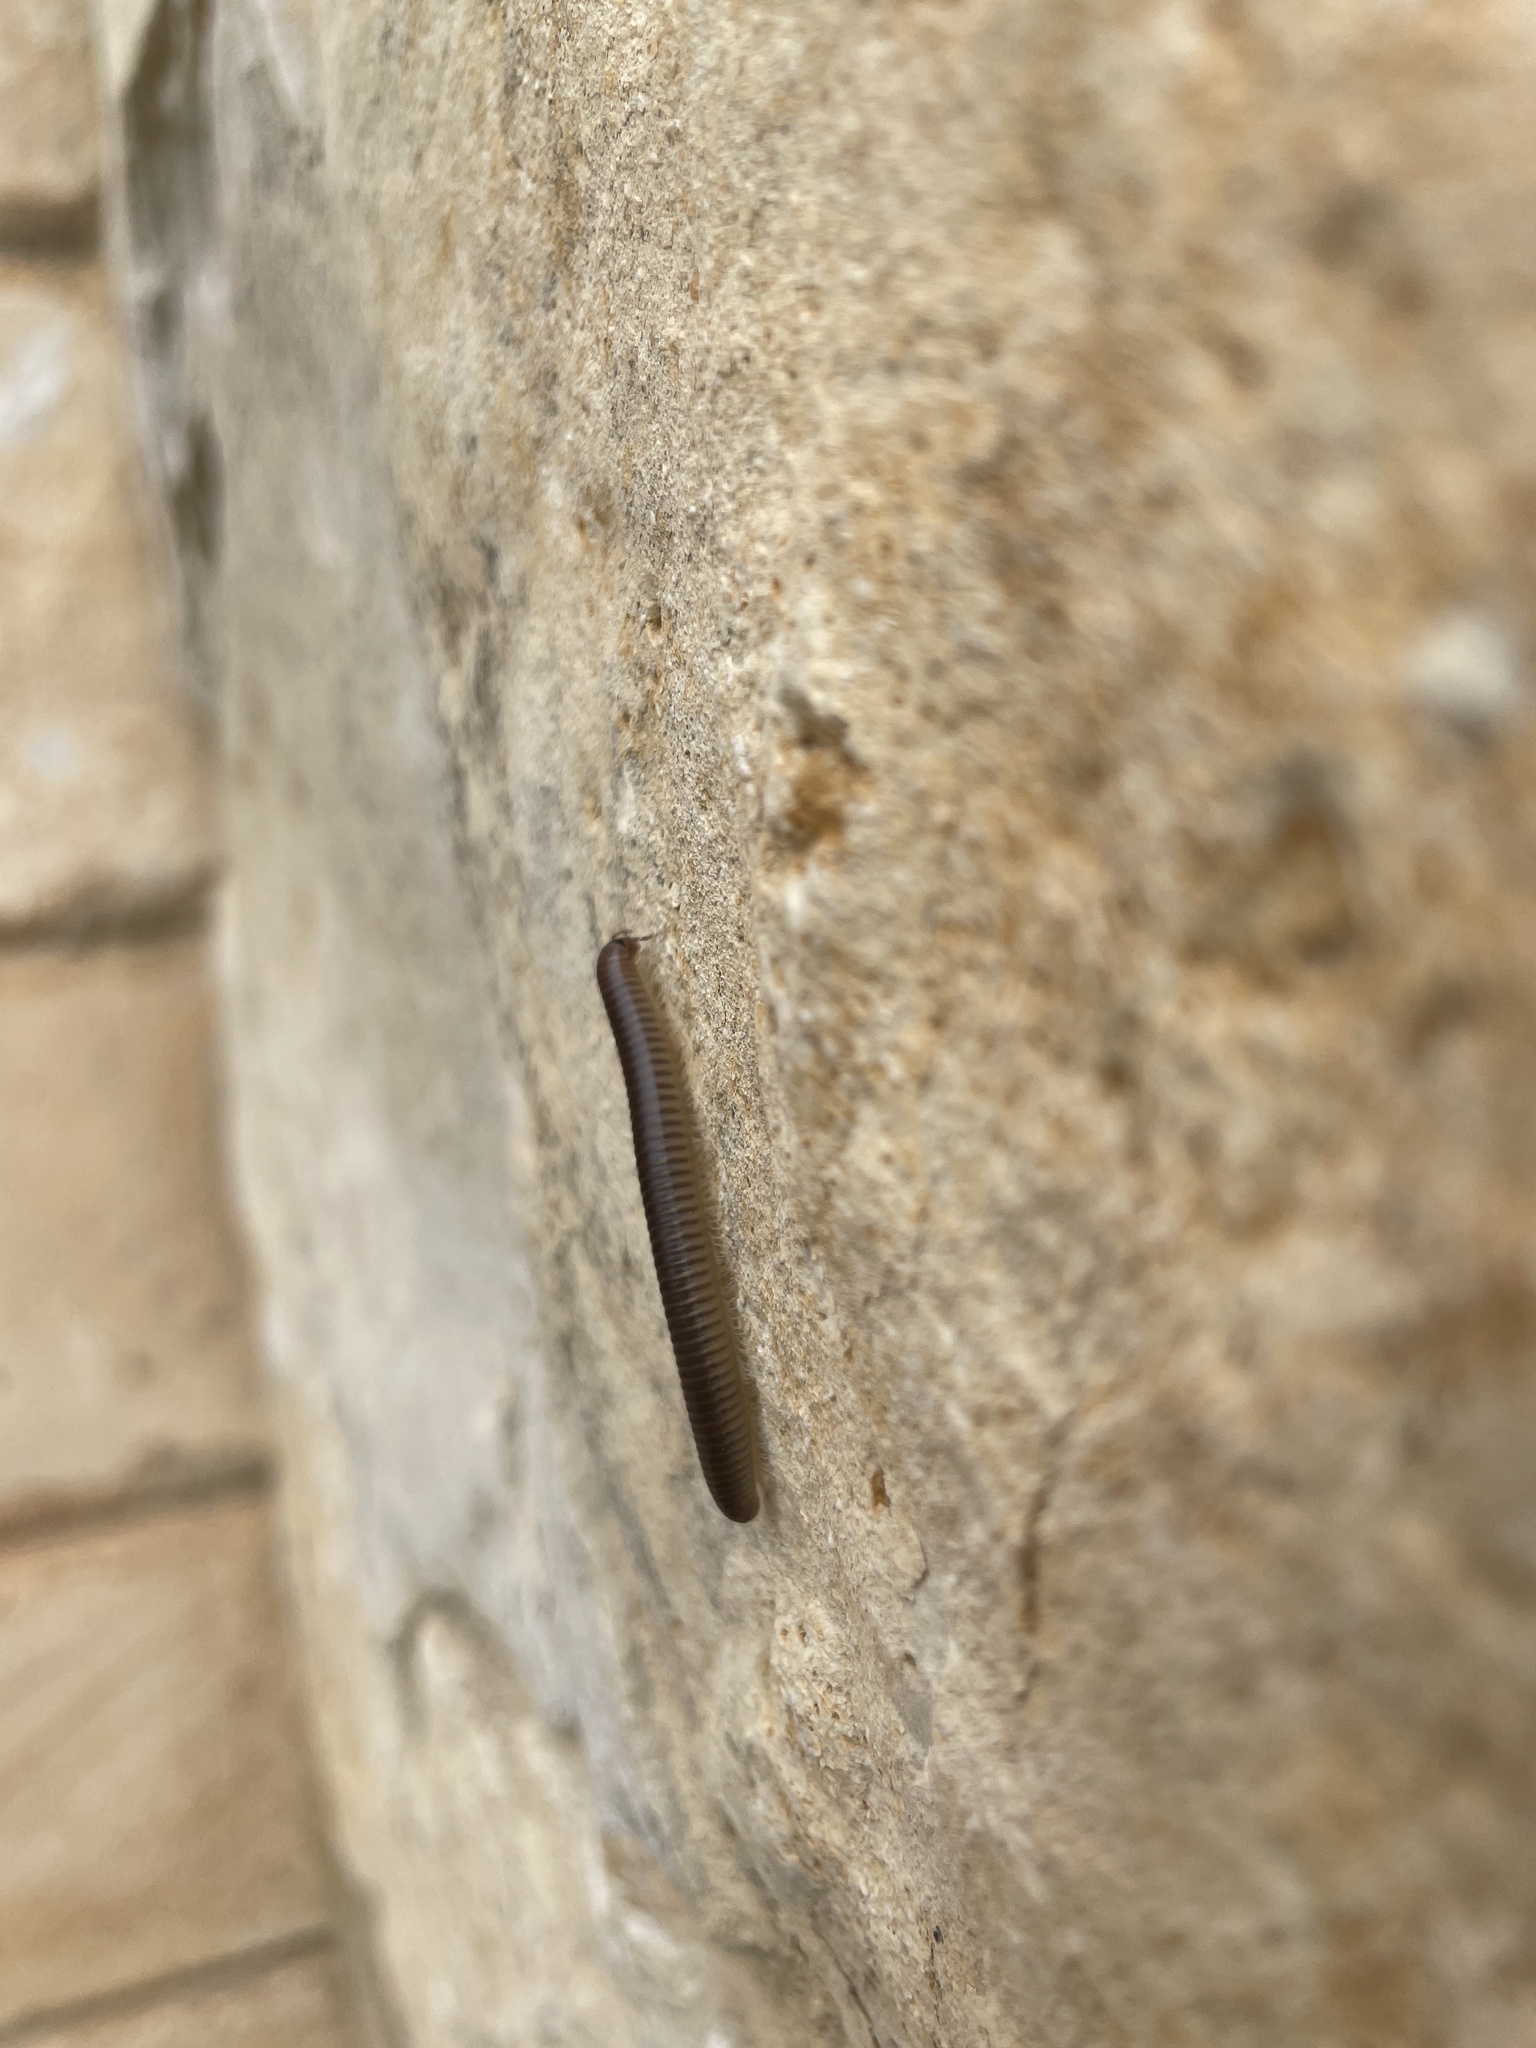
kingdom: Animalia
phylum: Arthropoda
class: Diplopoda
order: Julida
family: Julidae
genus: Pachyiulus
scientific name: Pachyiulus flavipes
